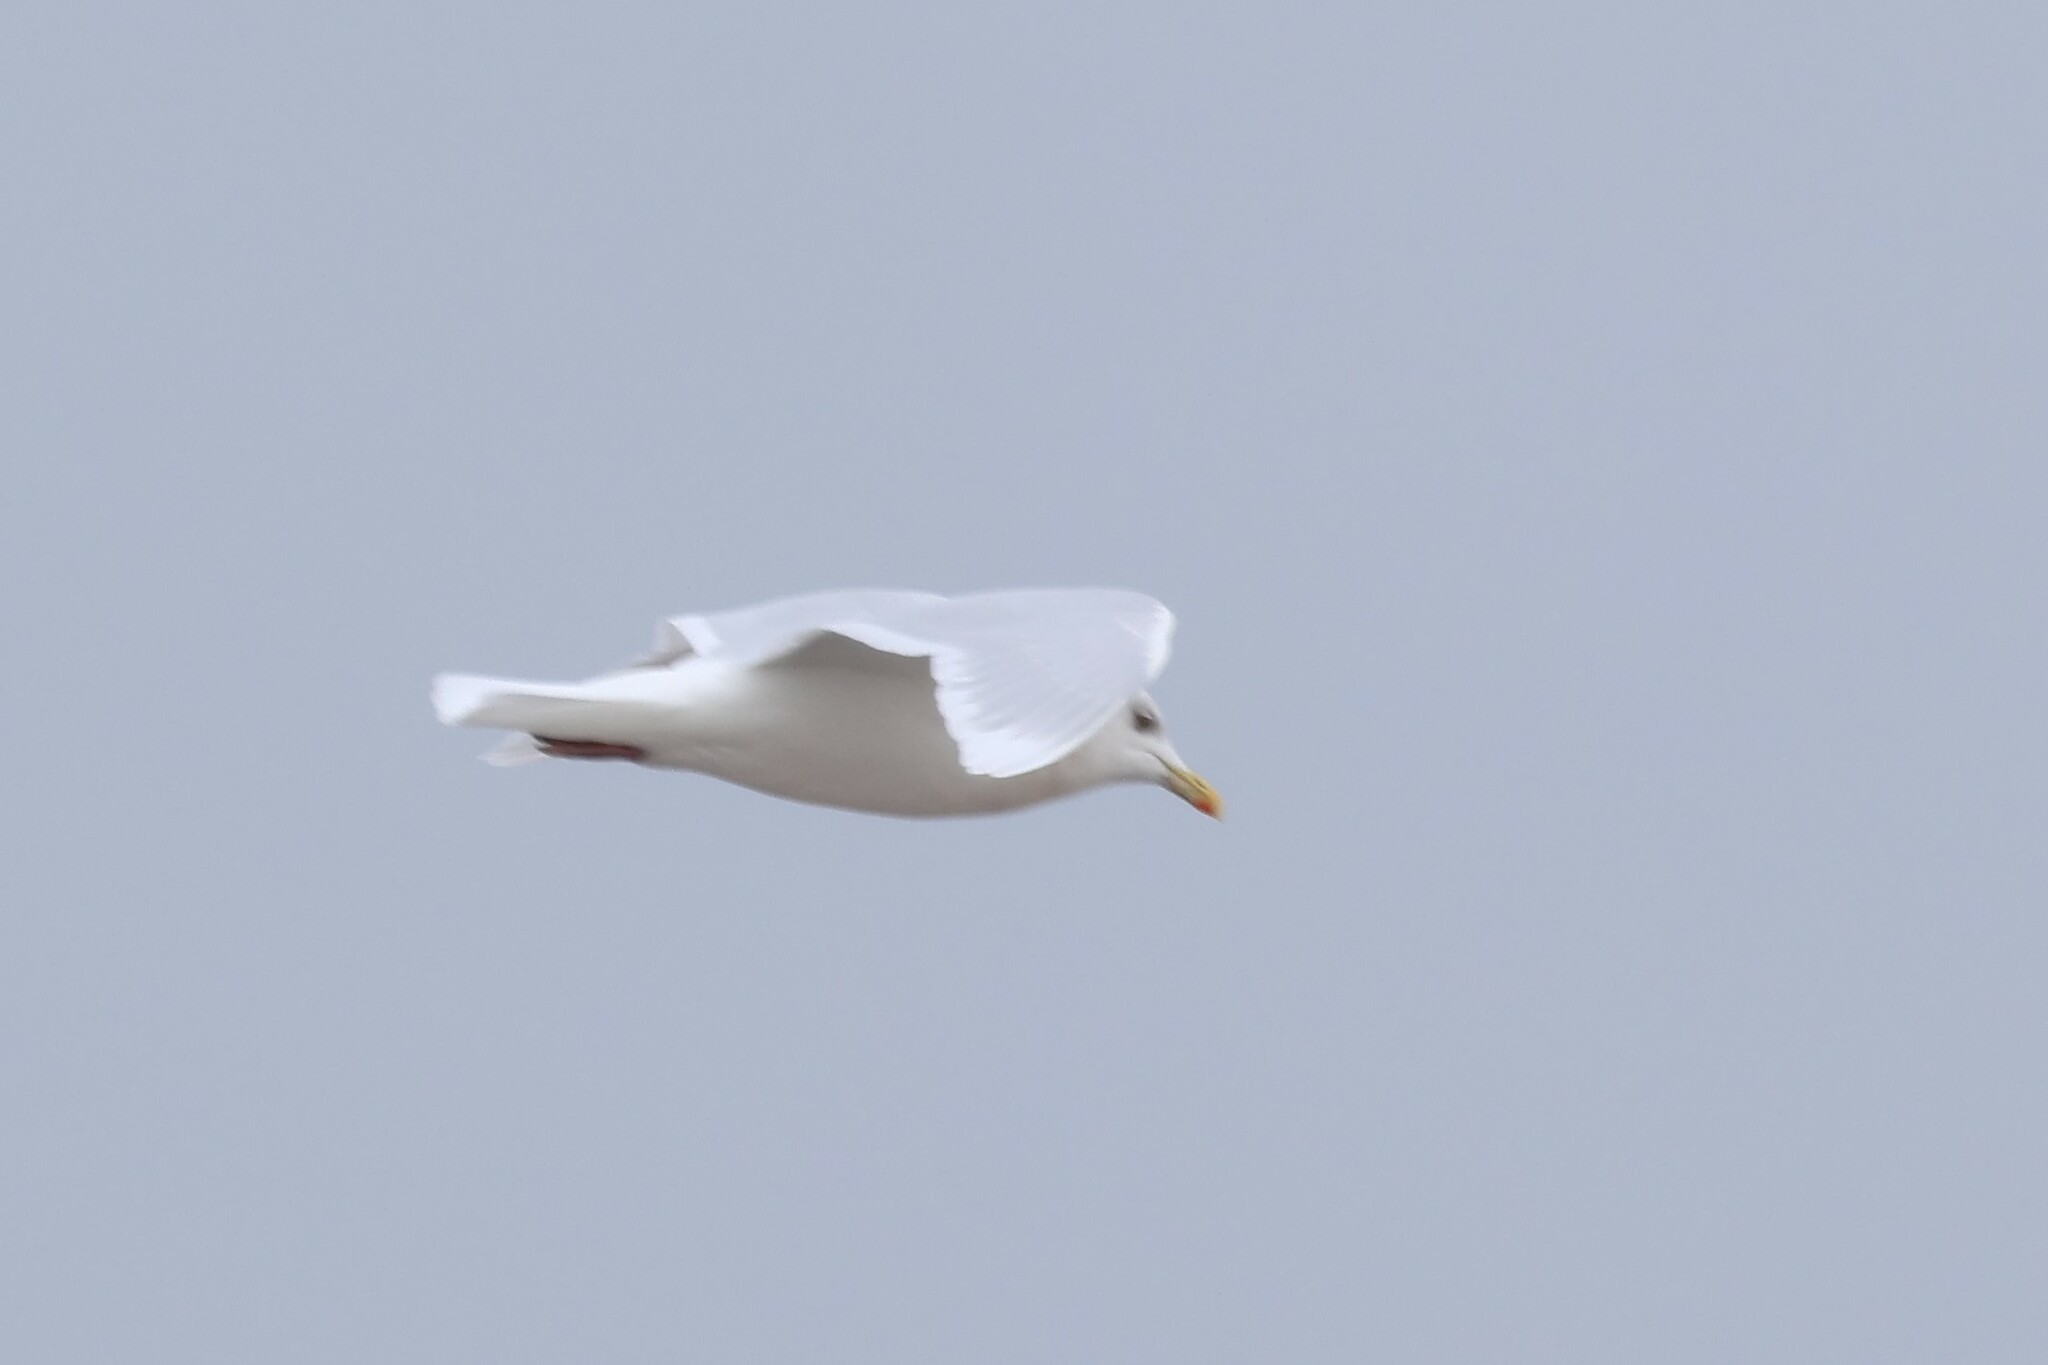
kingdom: Animalia
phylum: Chordata
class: Aves
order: Charadriiformes
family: Laridae
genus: Larus
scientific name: Larus glaucoides
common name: Iceland gull
